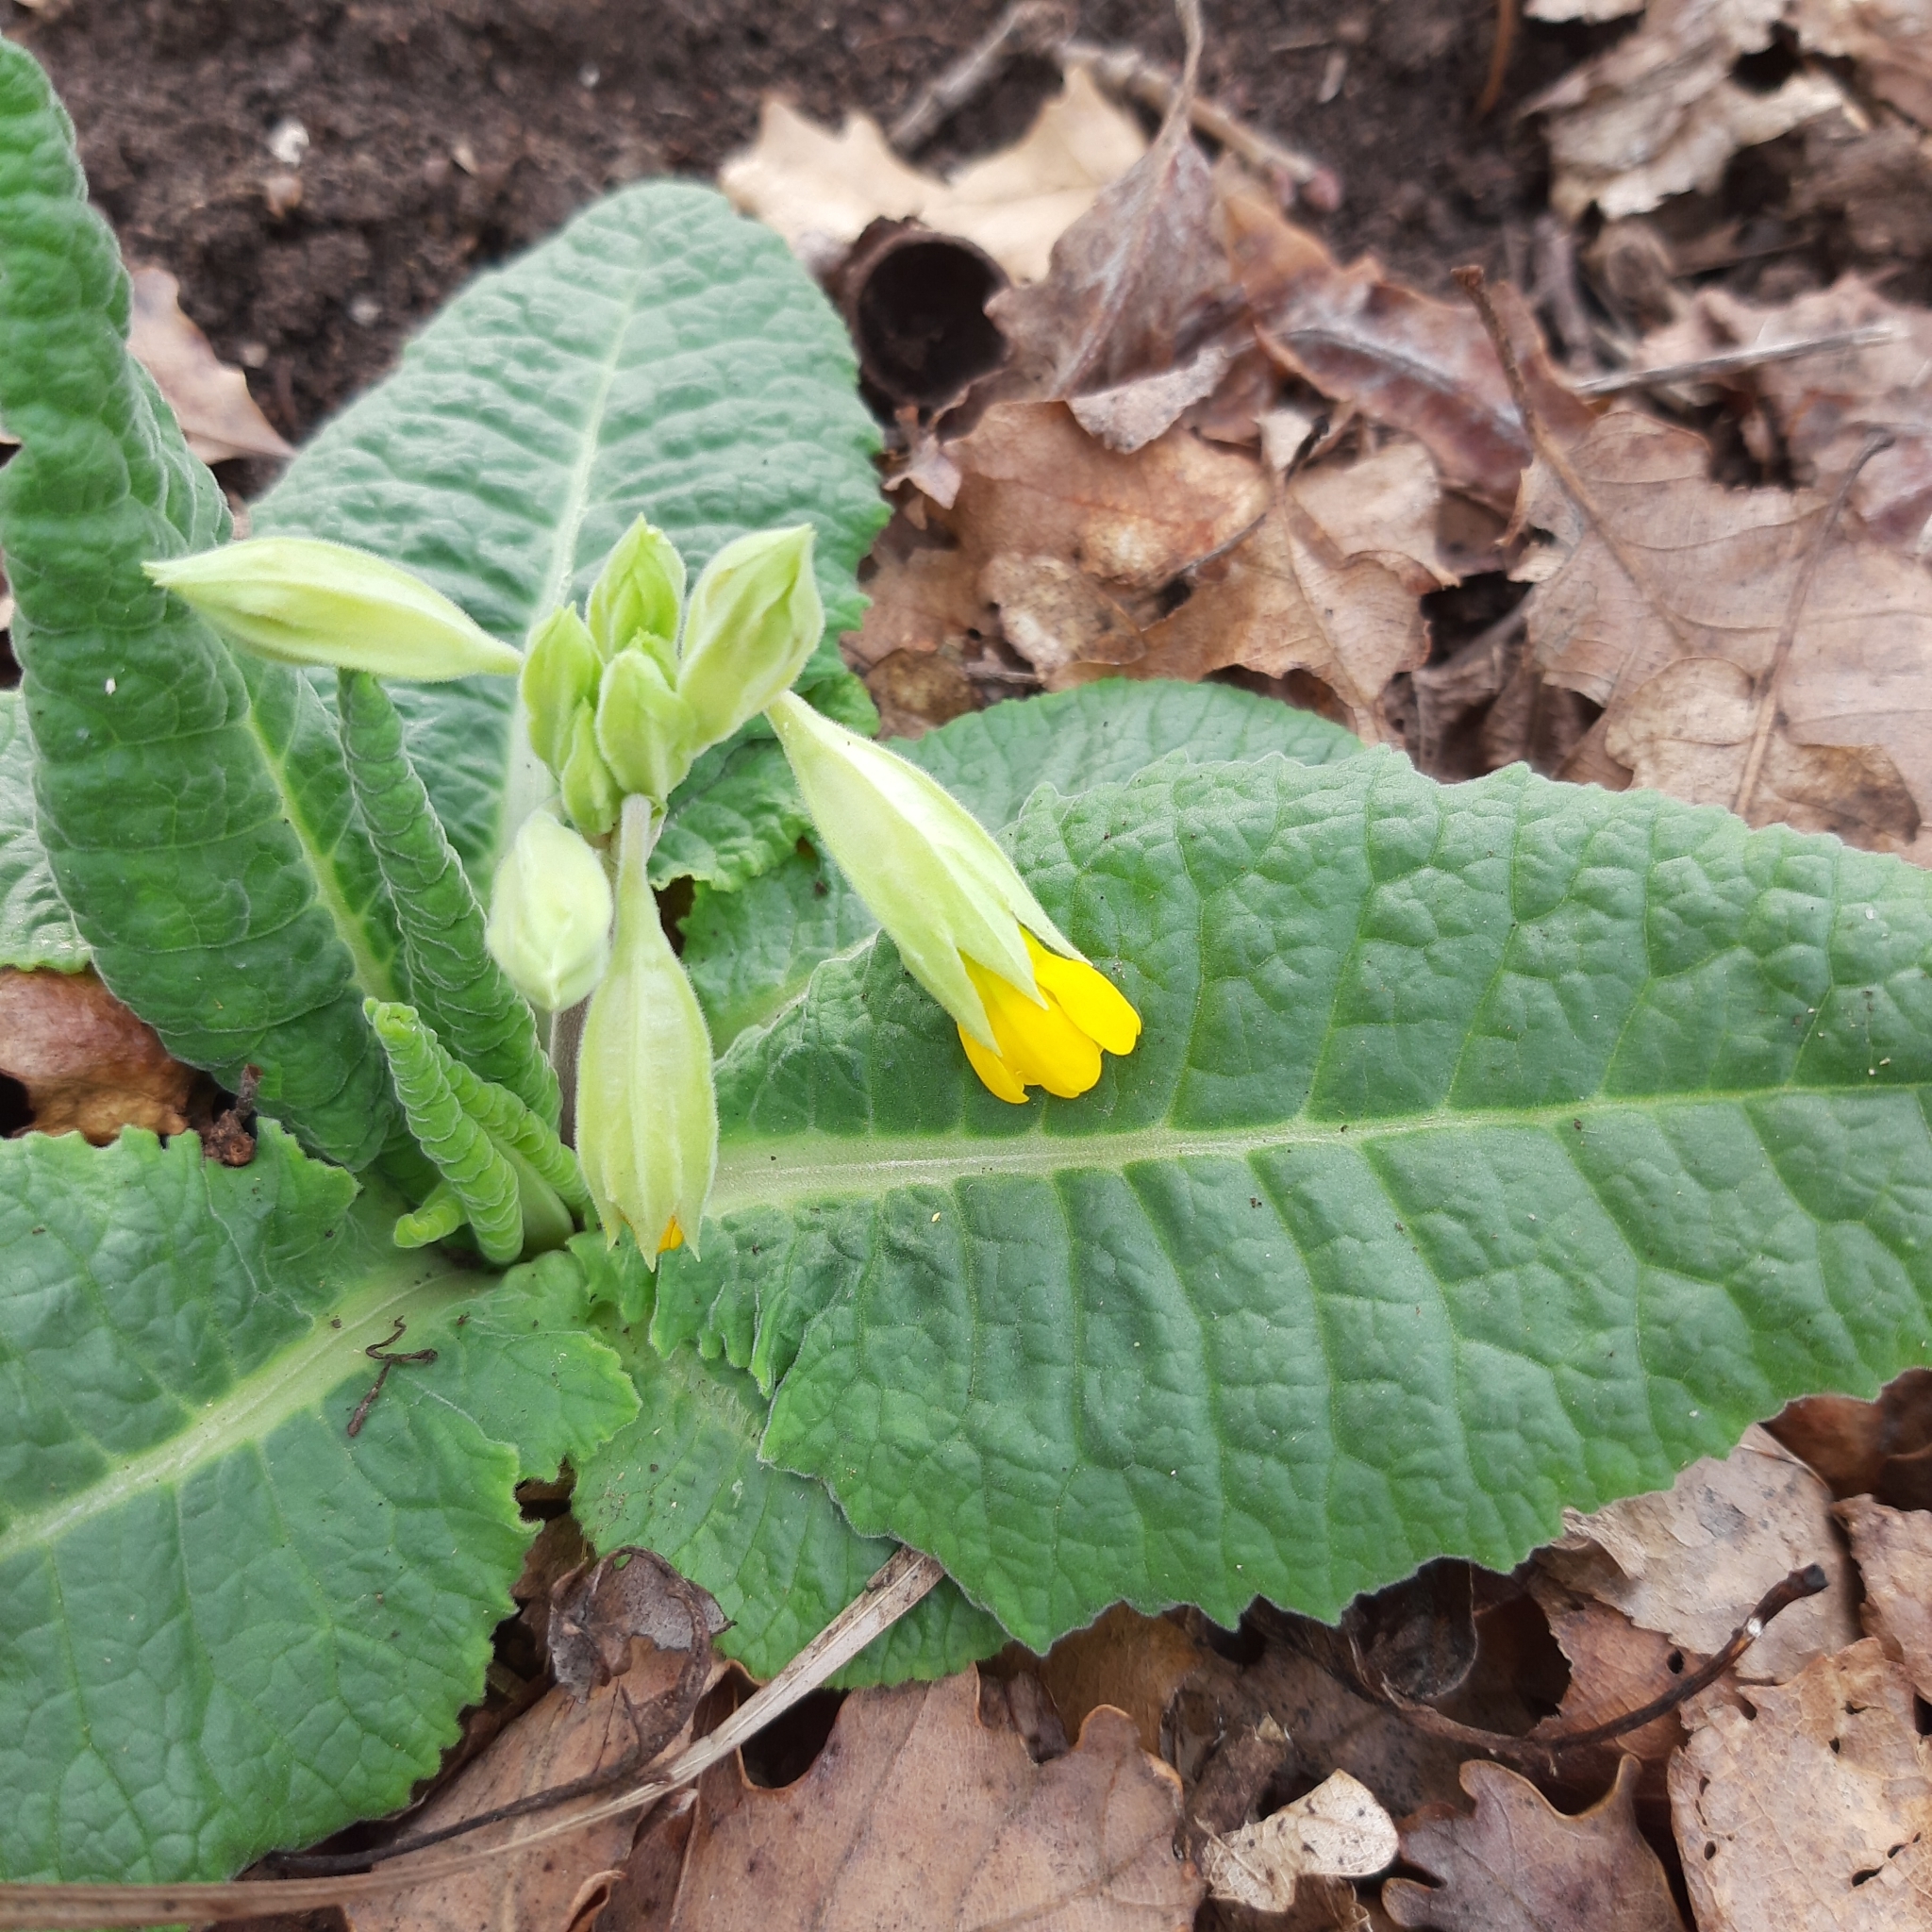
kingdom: Plantae
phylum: Tracheophyta
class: Magnoliopsida
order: Ericales
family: Primulaceae
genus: Primula
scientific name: Primula veris
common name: Cowslip
